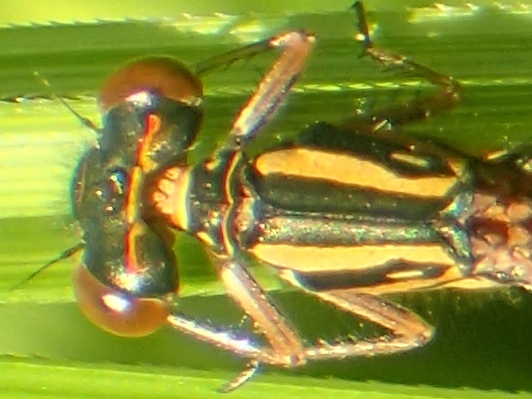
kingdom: Animalia
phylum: Arthropoda
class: Insecta
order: Odonata
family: Coenagrionidae
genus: Xanthocnemis
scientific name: Xanthocnemis zealandica
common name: Common redcoat damselfly
